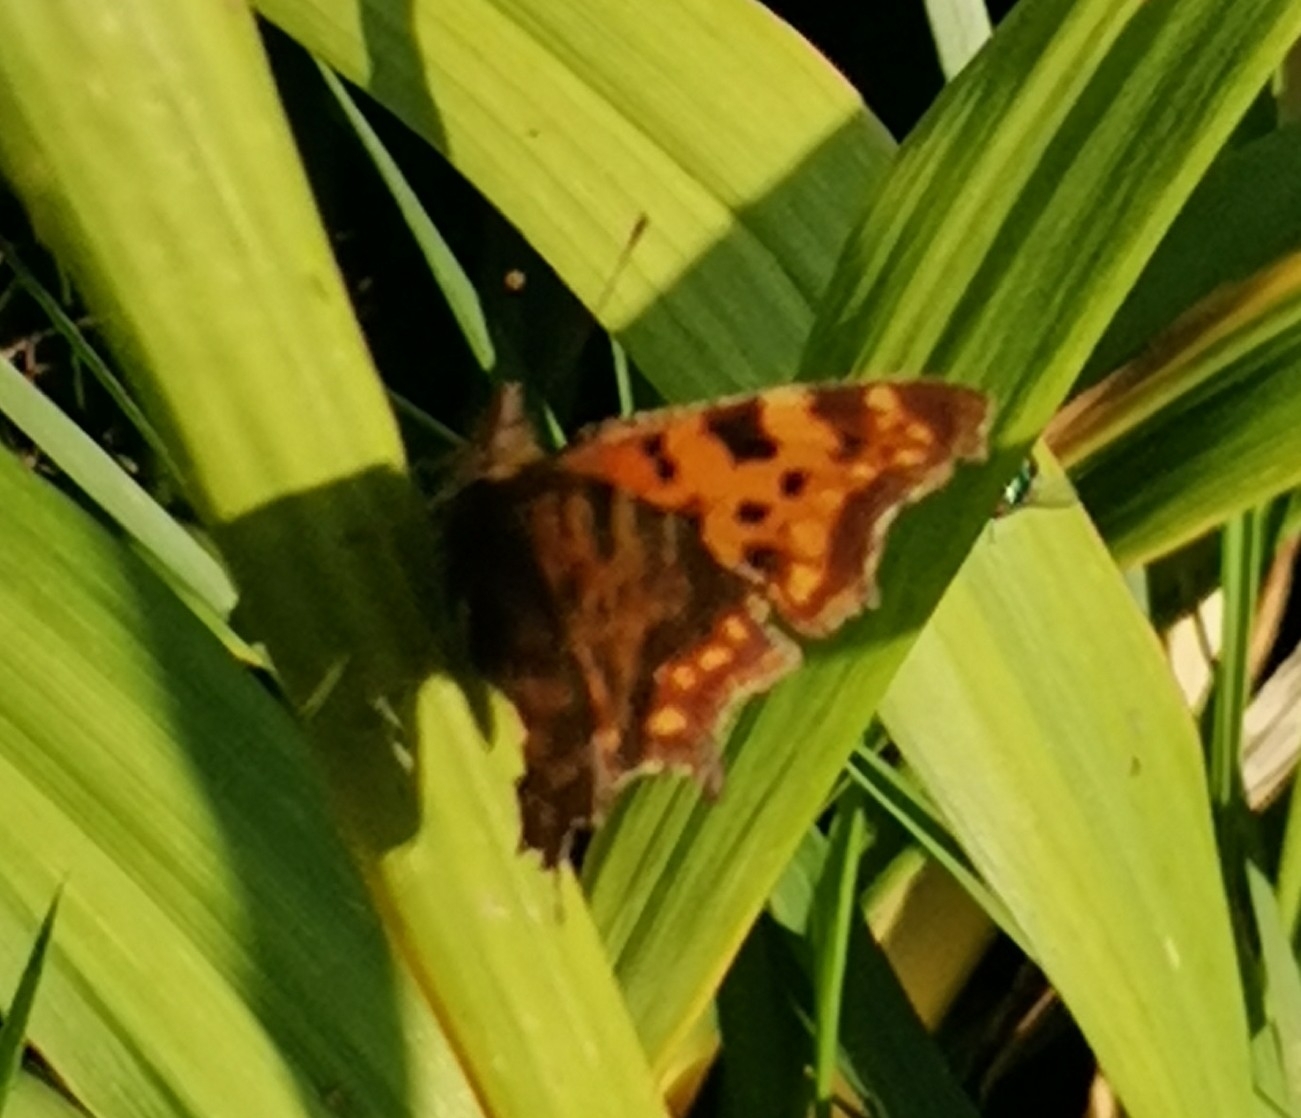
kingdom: Animalia
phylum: Arthropoda
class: Insecta
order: Lepidoptera
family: Nymphalidae
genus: Polygonia
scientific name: Polygonia c-album
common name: Comma
